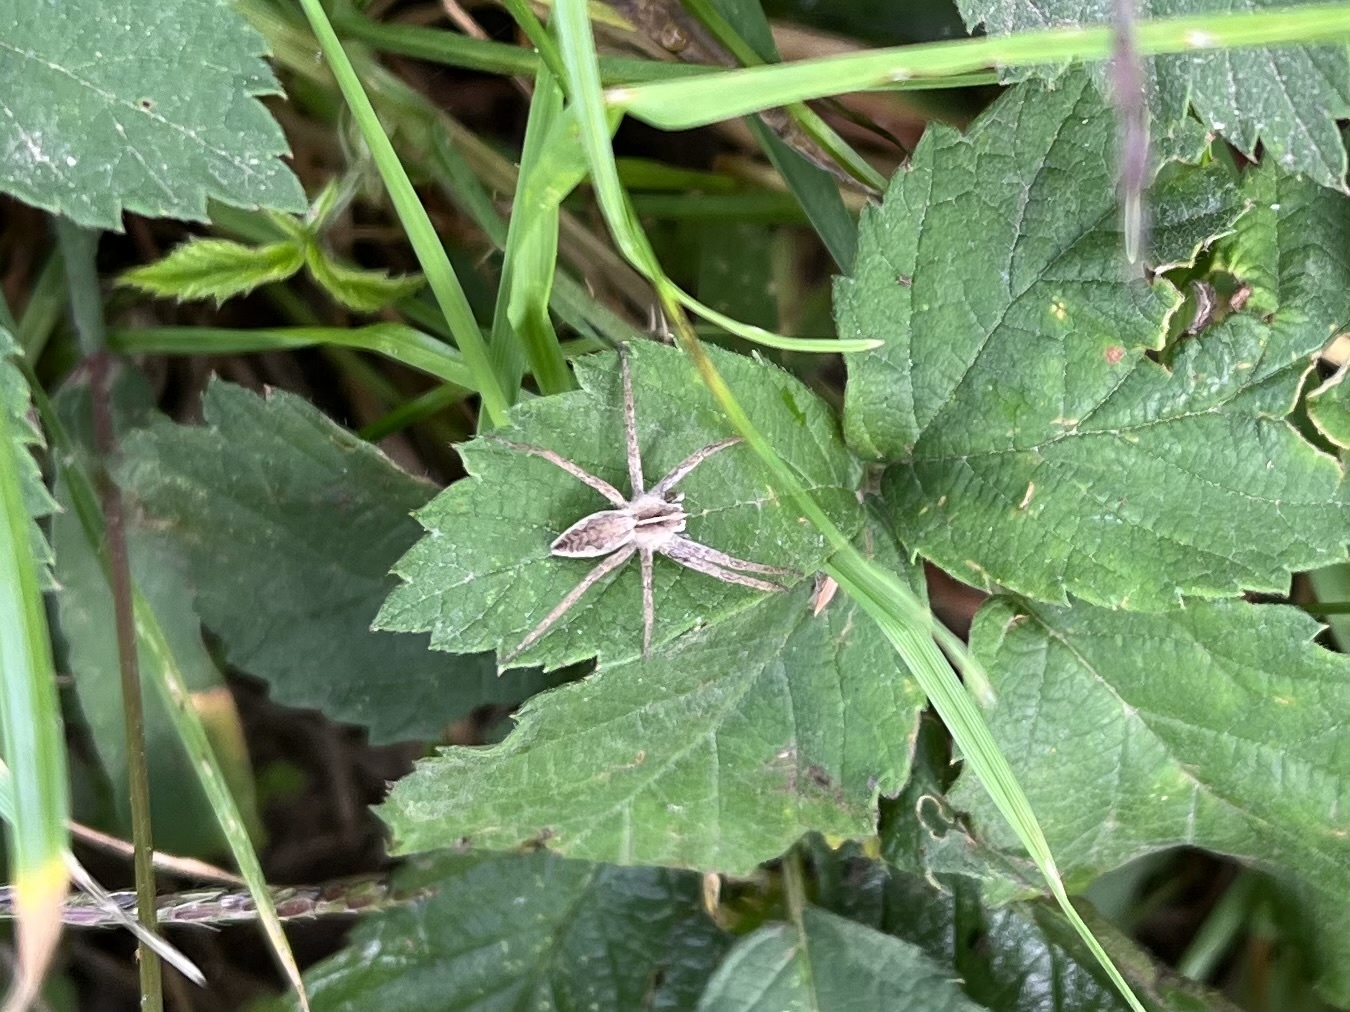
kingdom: Animalia
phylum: Arthropoda
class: Arachnida
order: Araneae
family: Pisauridae
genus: Pisaura
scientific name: Pisaura mirabilis
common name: Tent spider
